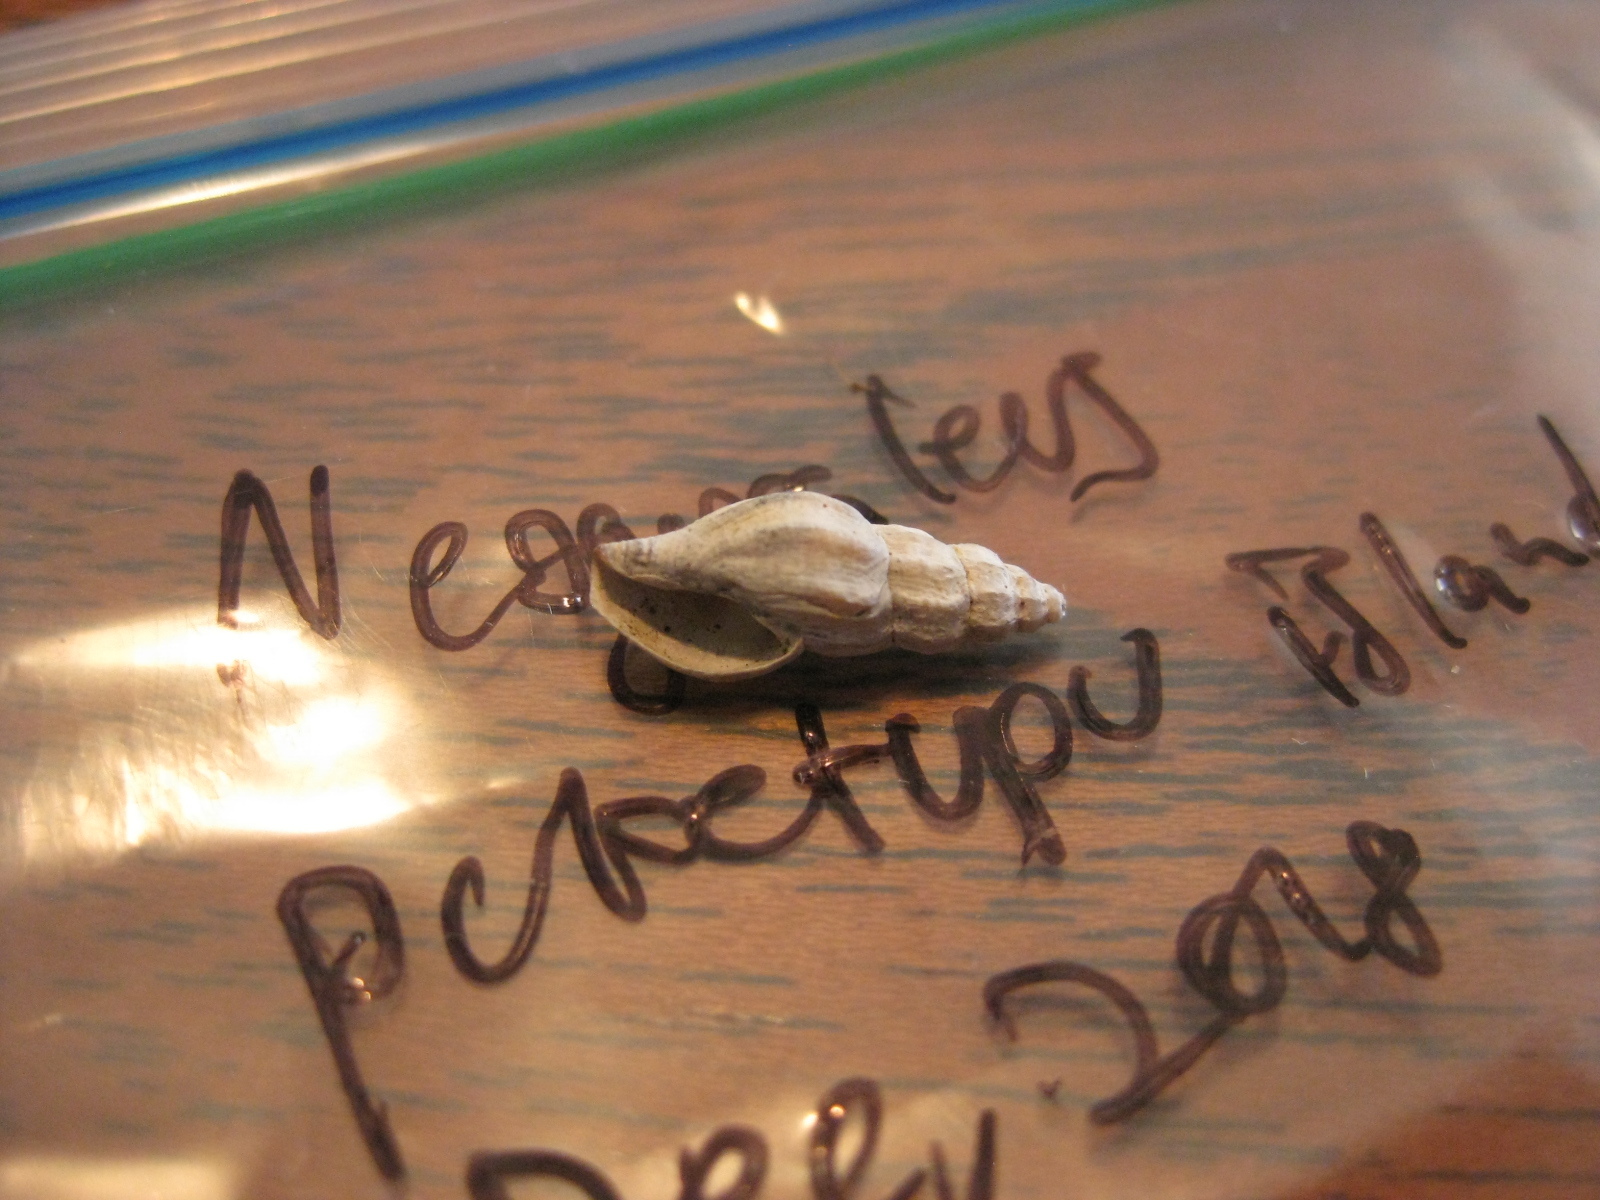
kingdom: Animalia
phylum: Mollusca
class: Gastropoda
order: Neogastropoda
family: Mangeliidae
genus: Neoguraleus
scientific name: Neoguraleus manukauensis
